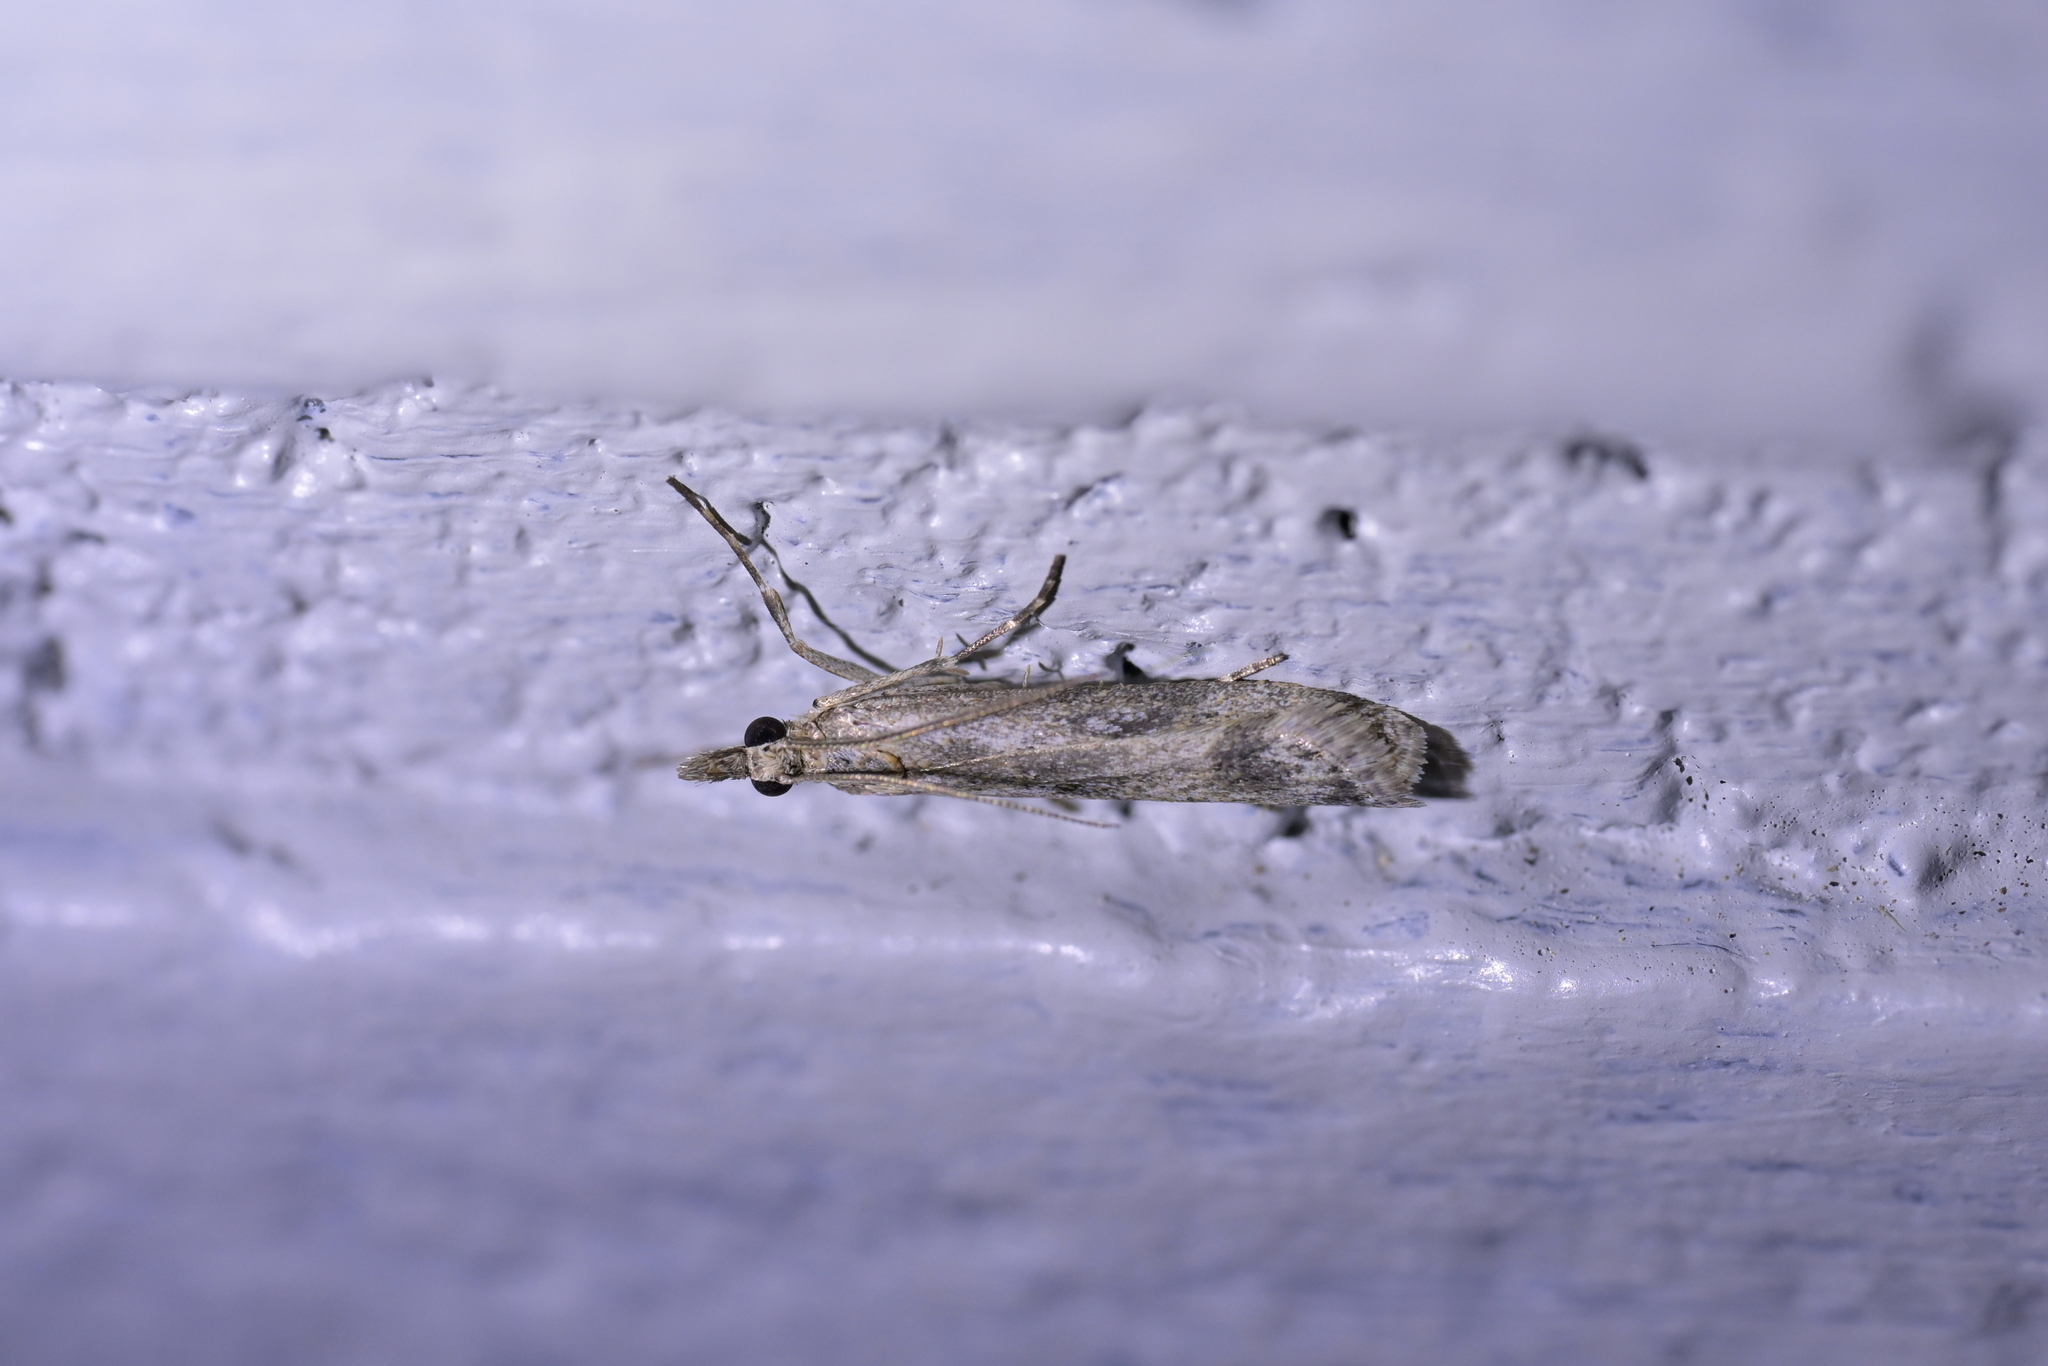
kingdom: Animalia
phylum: Arthropoda
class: Insecta
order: Lepidoptera
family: Crambidae
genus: Eudonia
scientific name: Eudonia leptalea
